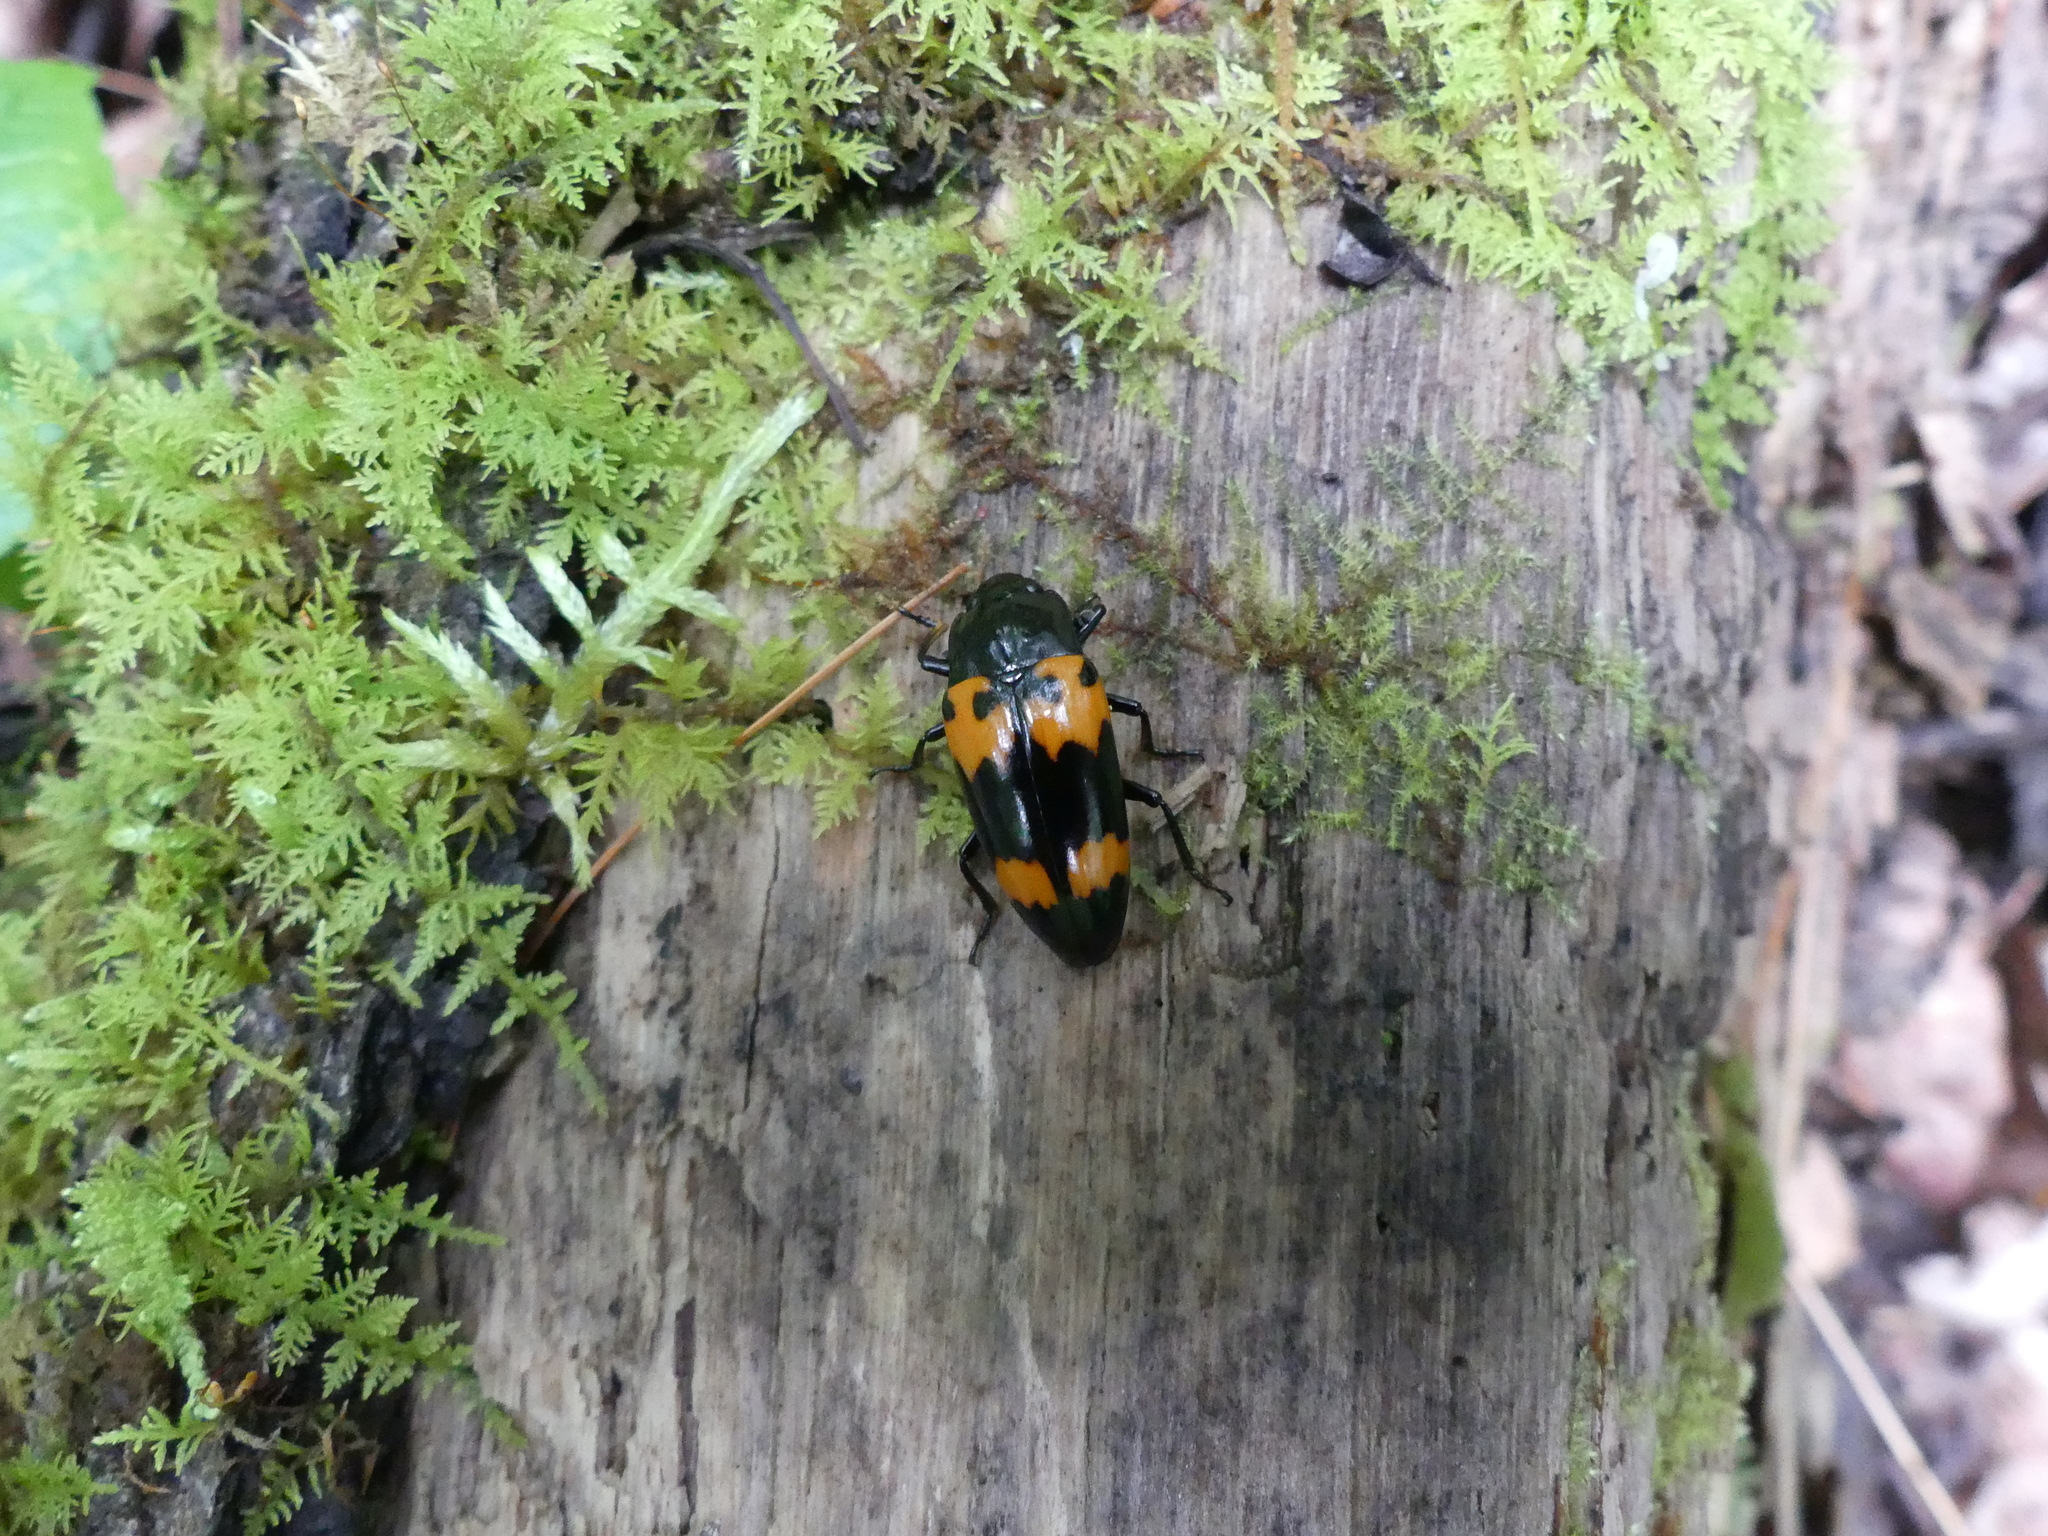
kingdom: Animalia
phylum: Arthropoda
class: Insecta
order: Coleoptera
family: Erotylidae
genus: Megalodacne
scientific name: Megalodacne heros
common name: Pleasing fungus beetle
